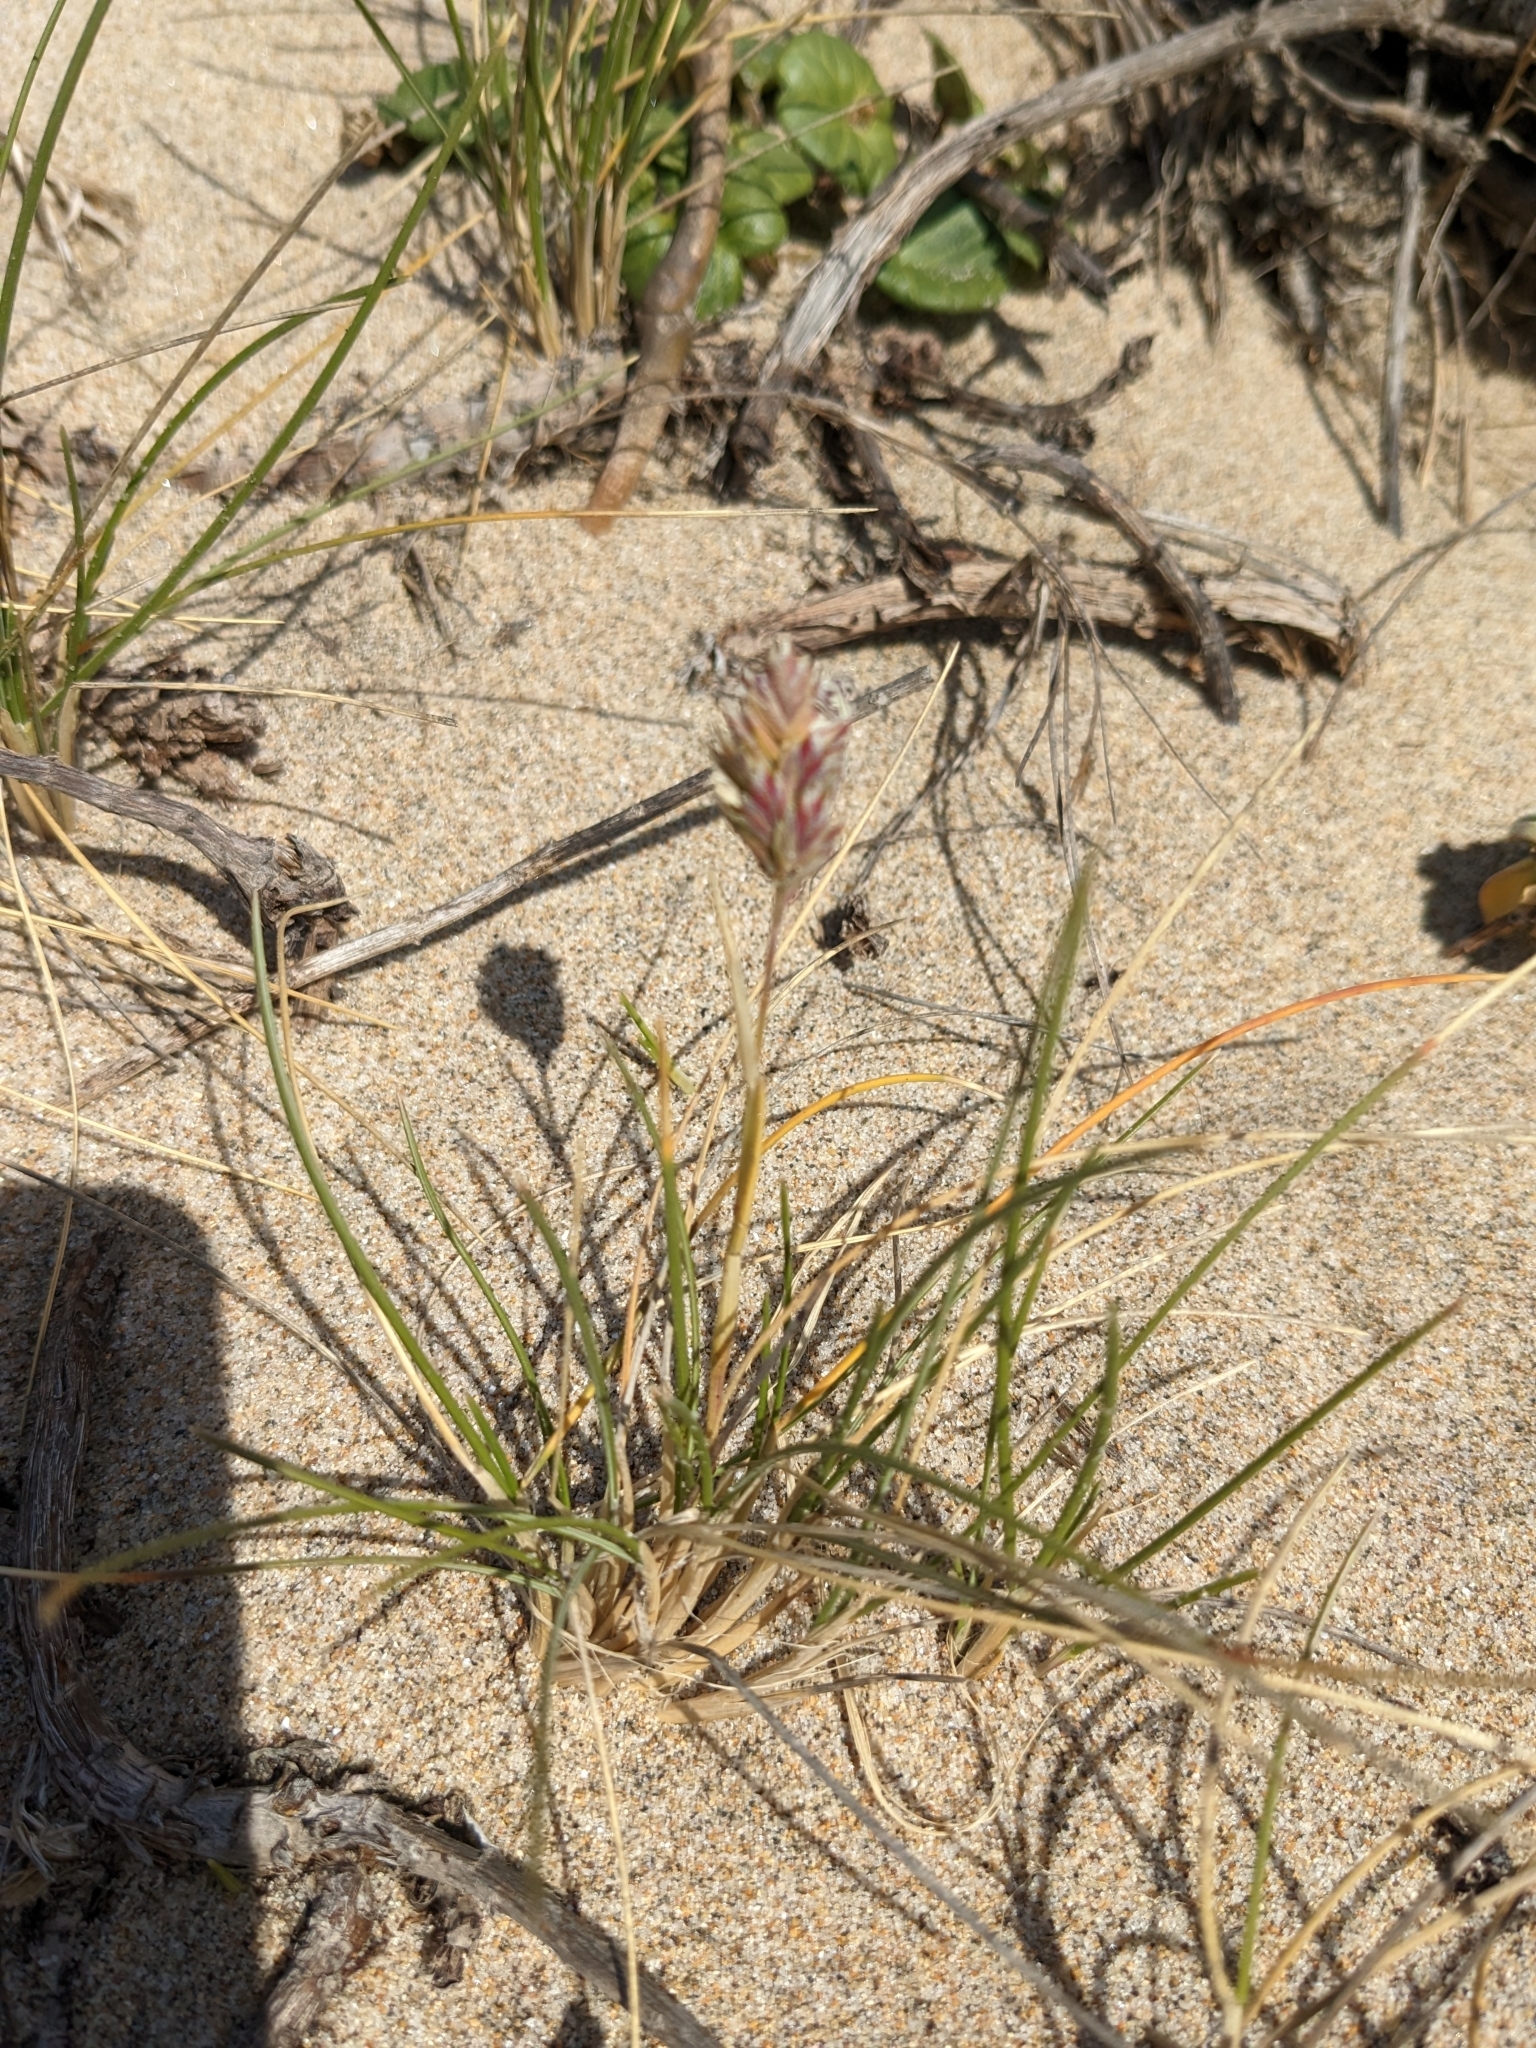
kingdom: Plantae
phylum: Tracheophyta
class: Liliopsida
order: Poales
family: Poaceae
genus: Poa
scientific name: Poa douglasii
